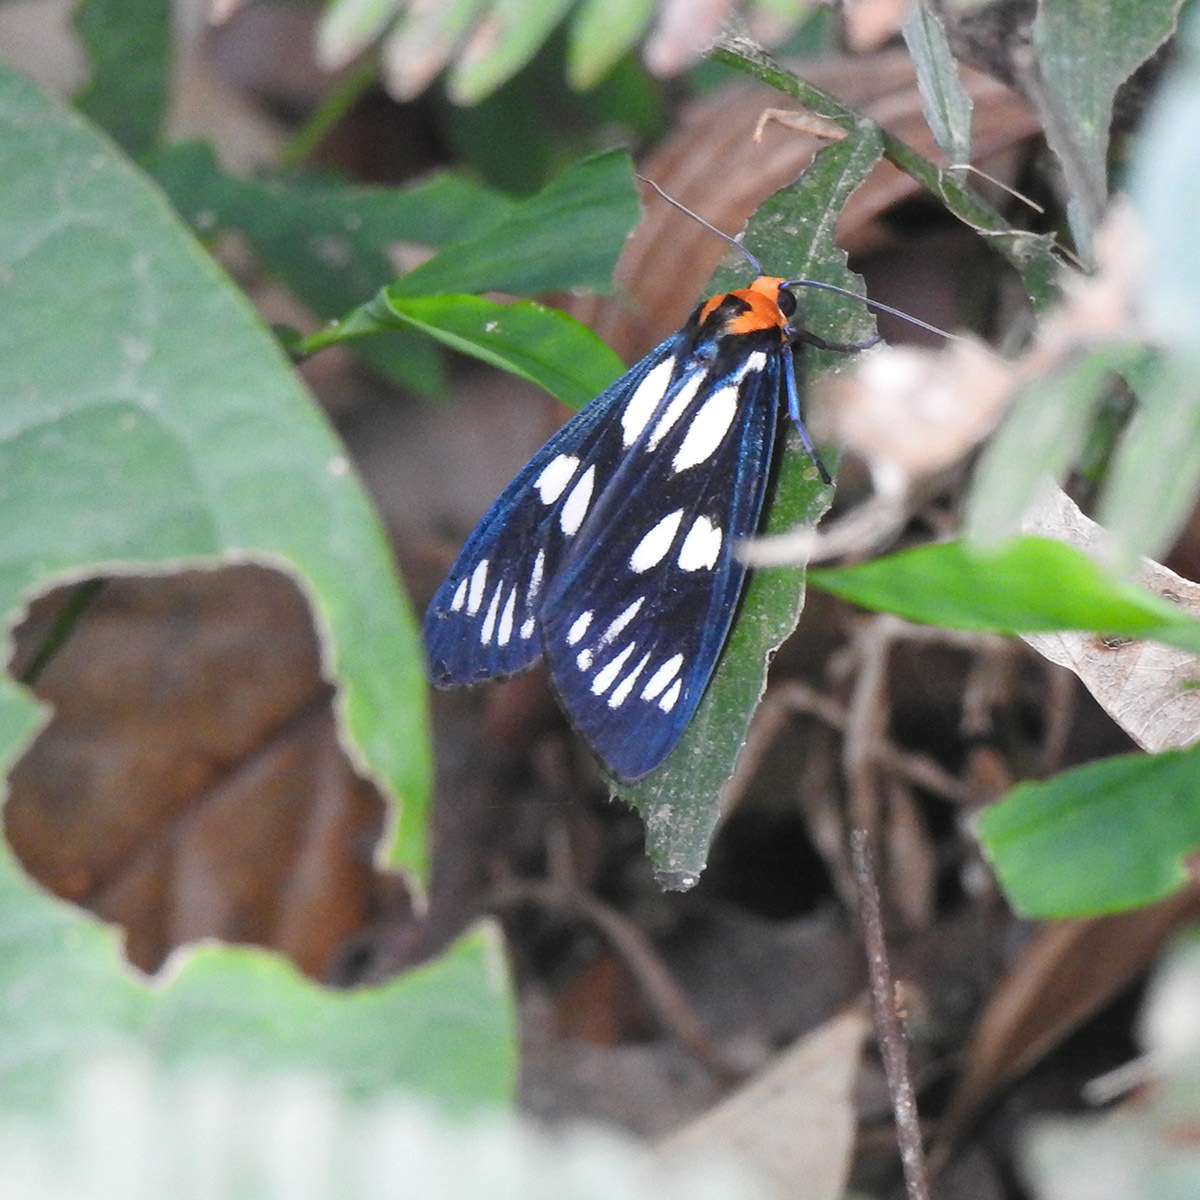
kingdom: Animalia
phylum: Arthropoda
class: Insecta
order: Lepidoptera
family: Erebidae
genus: Macrobrochis
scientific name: Macrobrochis gigas
